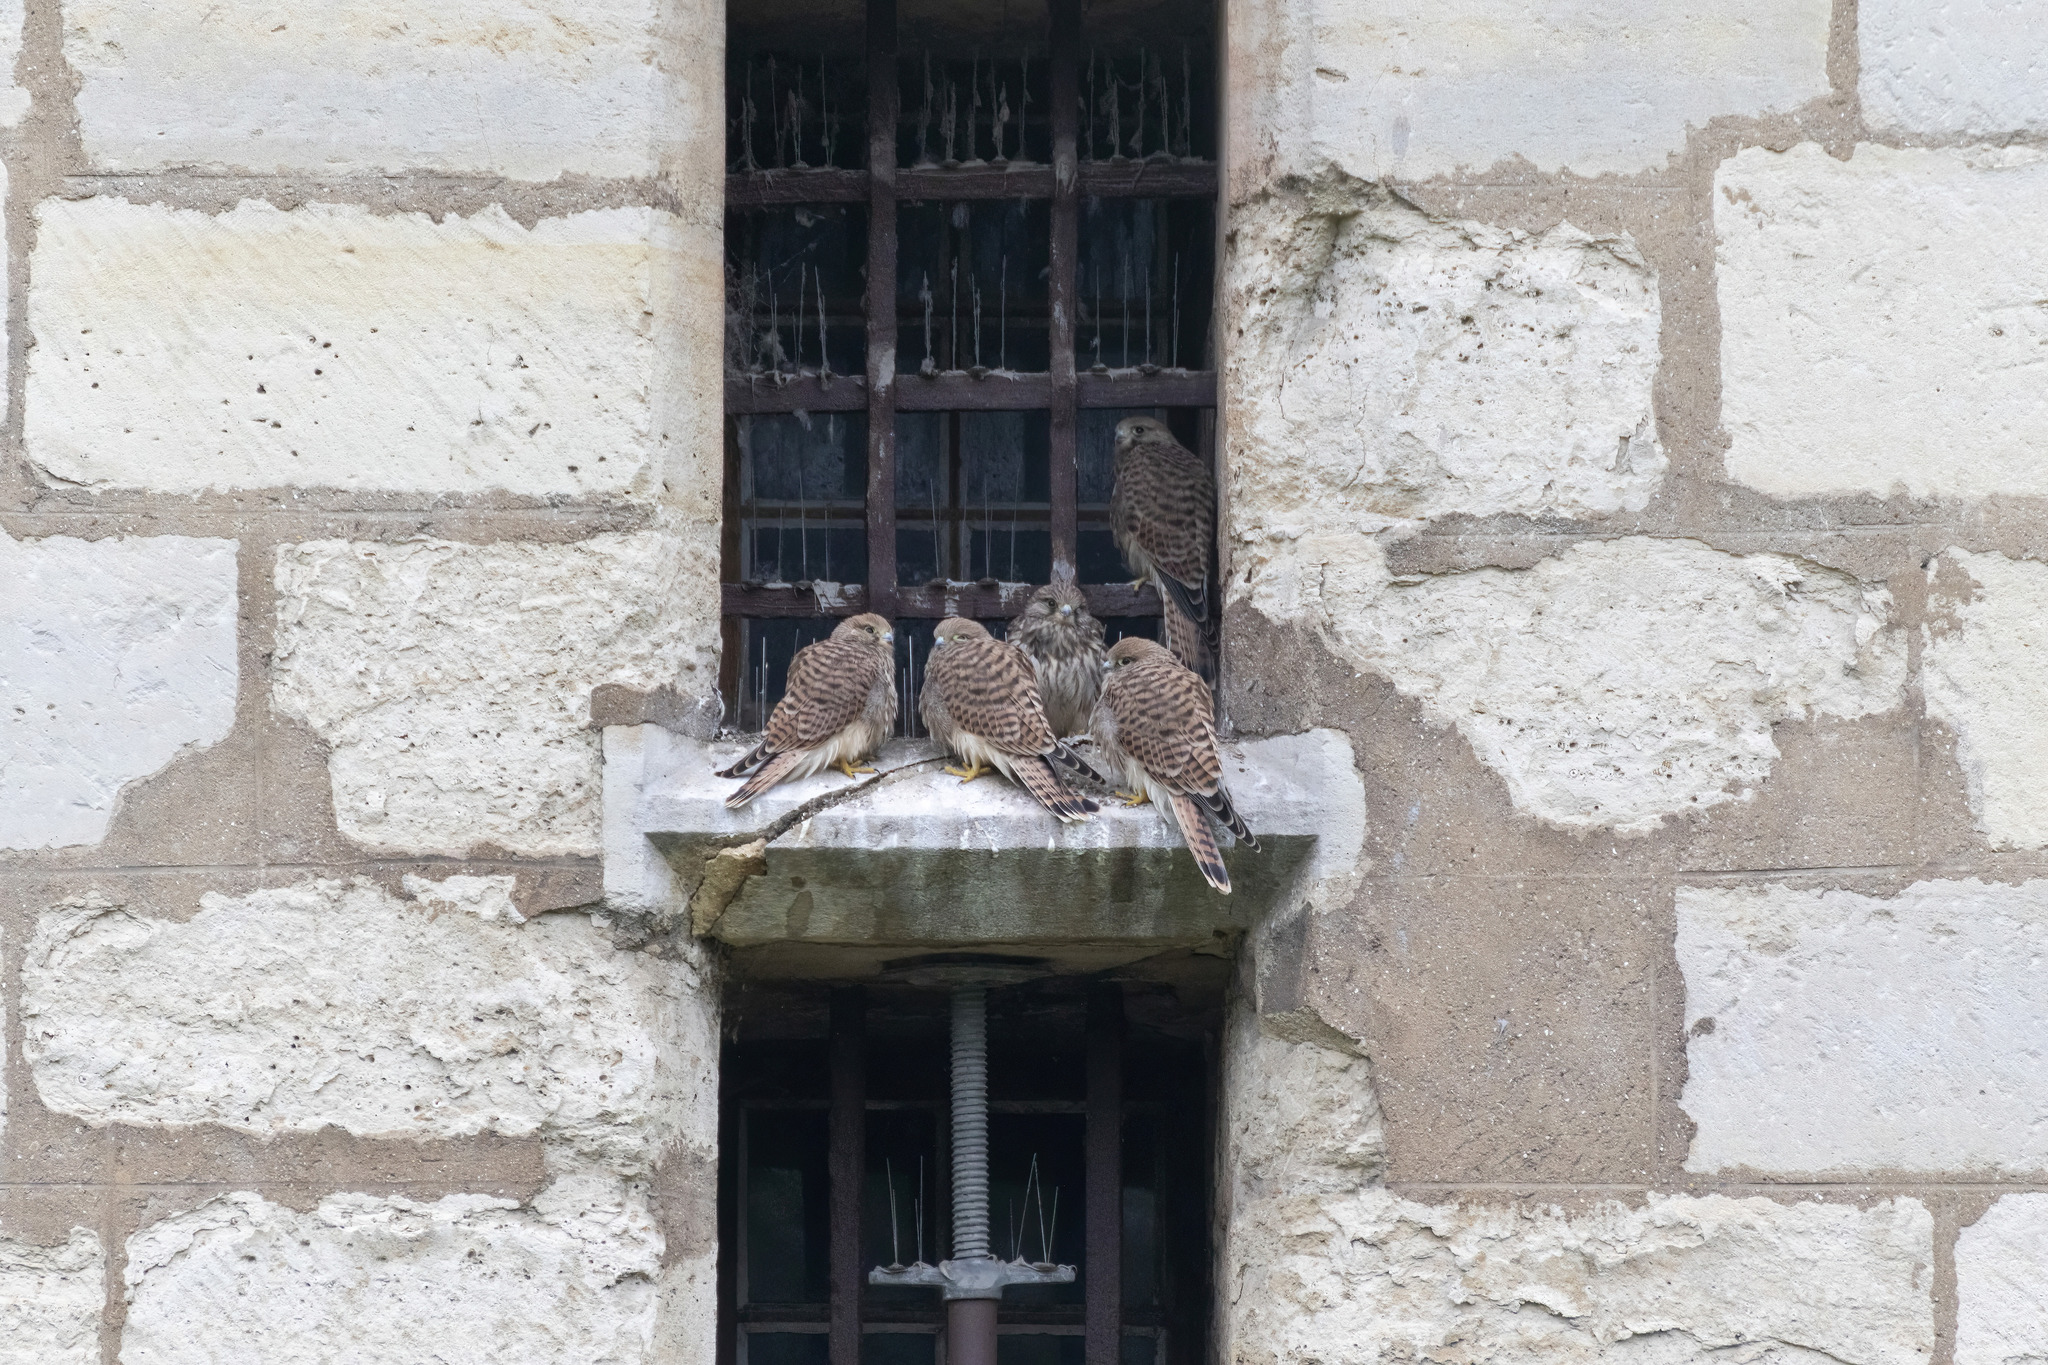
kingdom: Animalia
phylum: Chordata
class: Aves
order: Falconiformes
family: Falconidae
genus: Falco
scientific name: Falco tinnunculus
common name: Common kestrel
